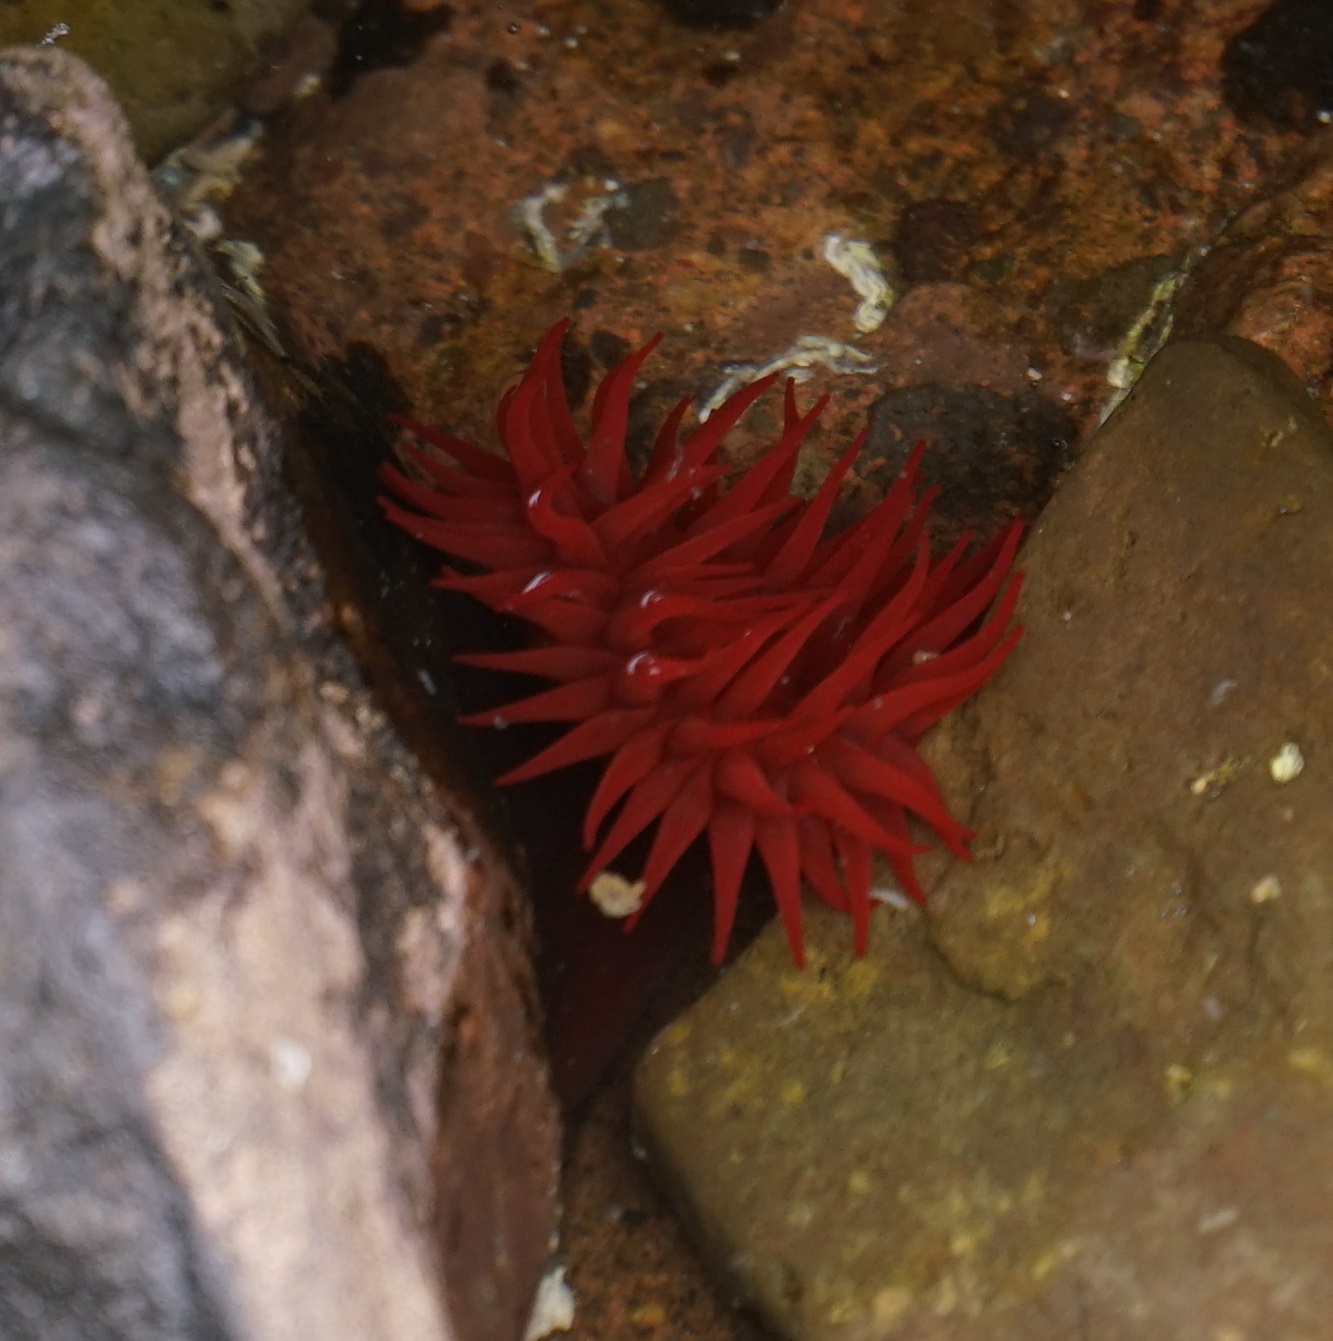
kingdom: Animalia
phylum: Cnidaria
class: Anthozoa
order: Actiniaria
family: Actiniidae
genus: Actinia
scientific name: Actinia tenebrosa
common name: Waratah anemone
